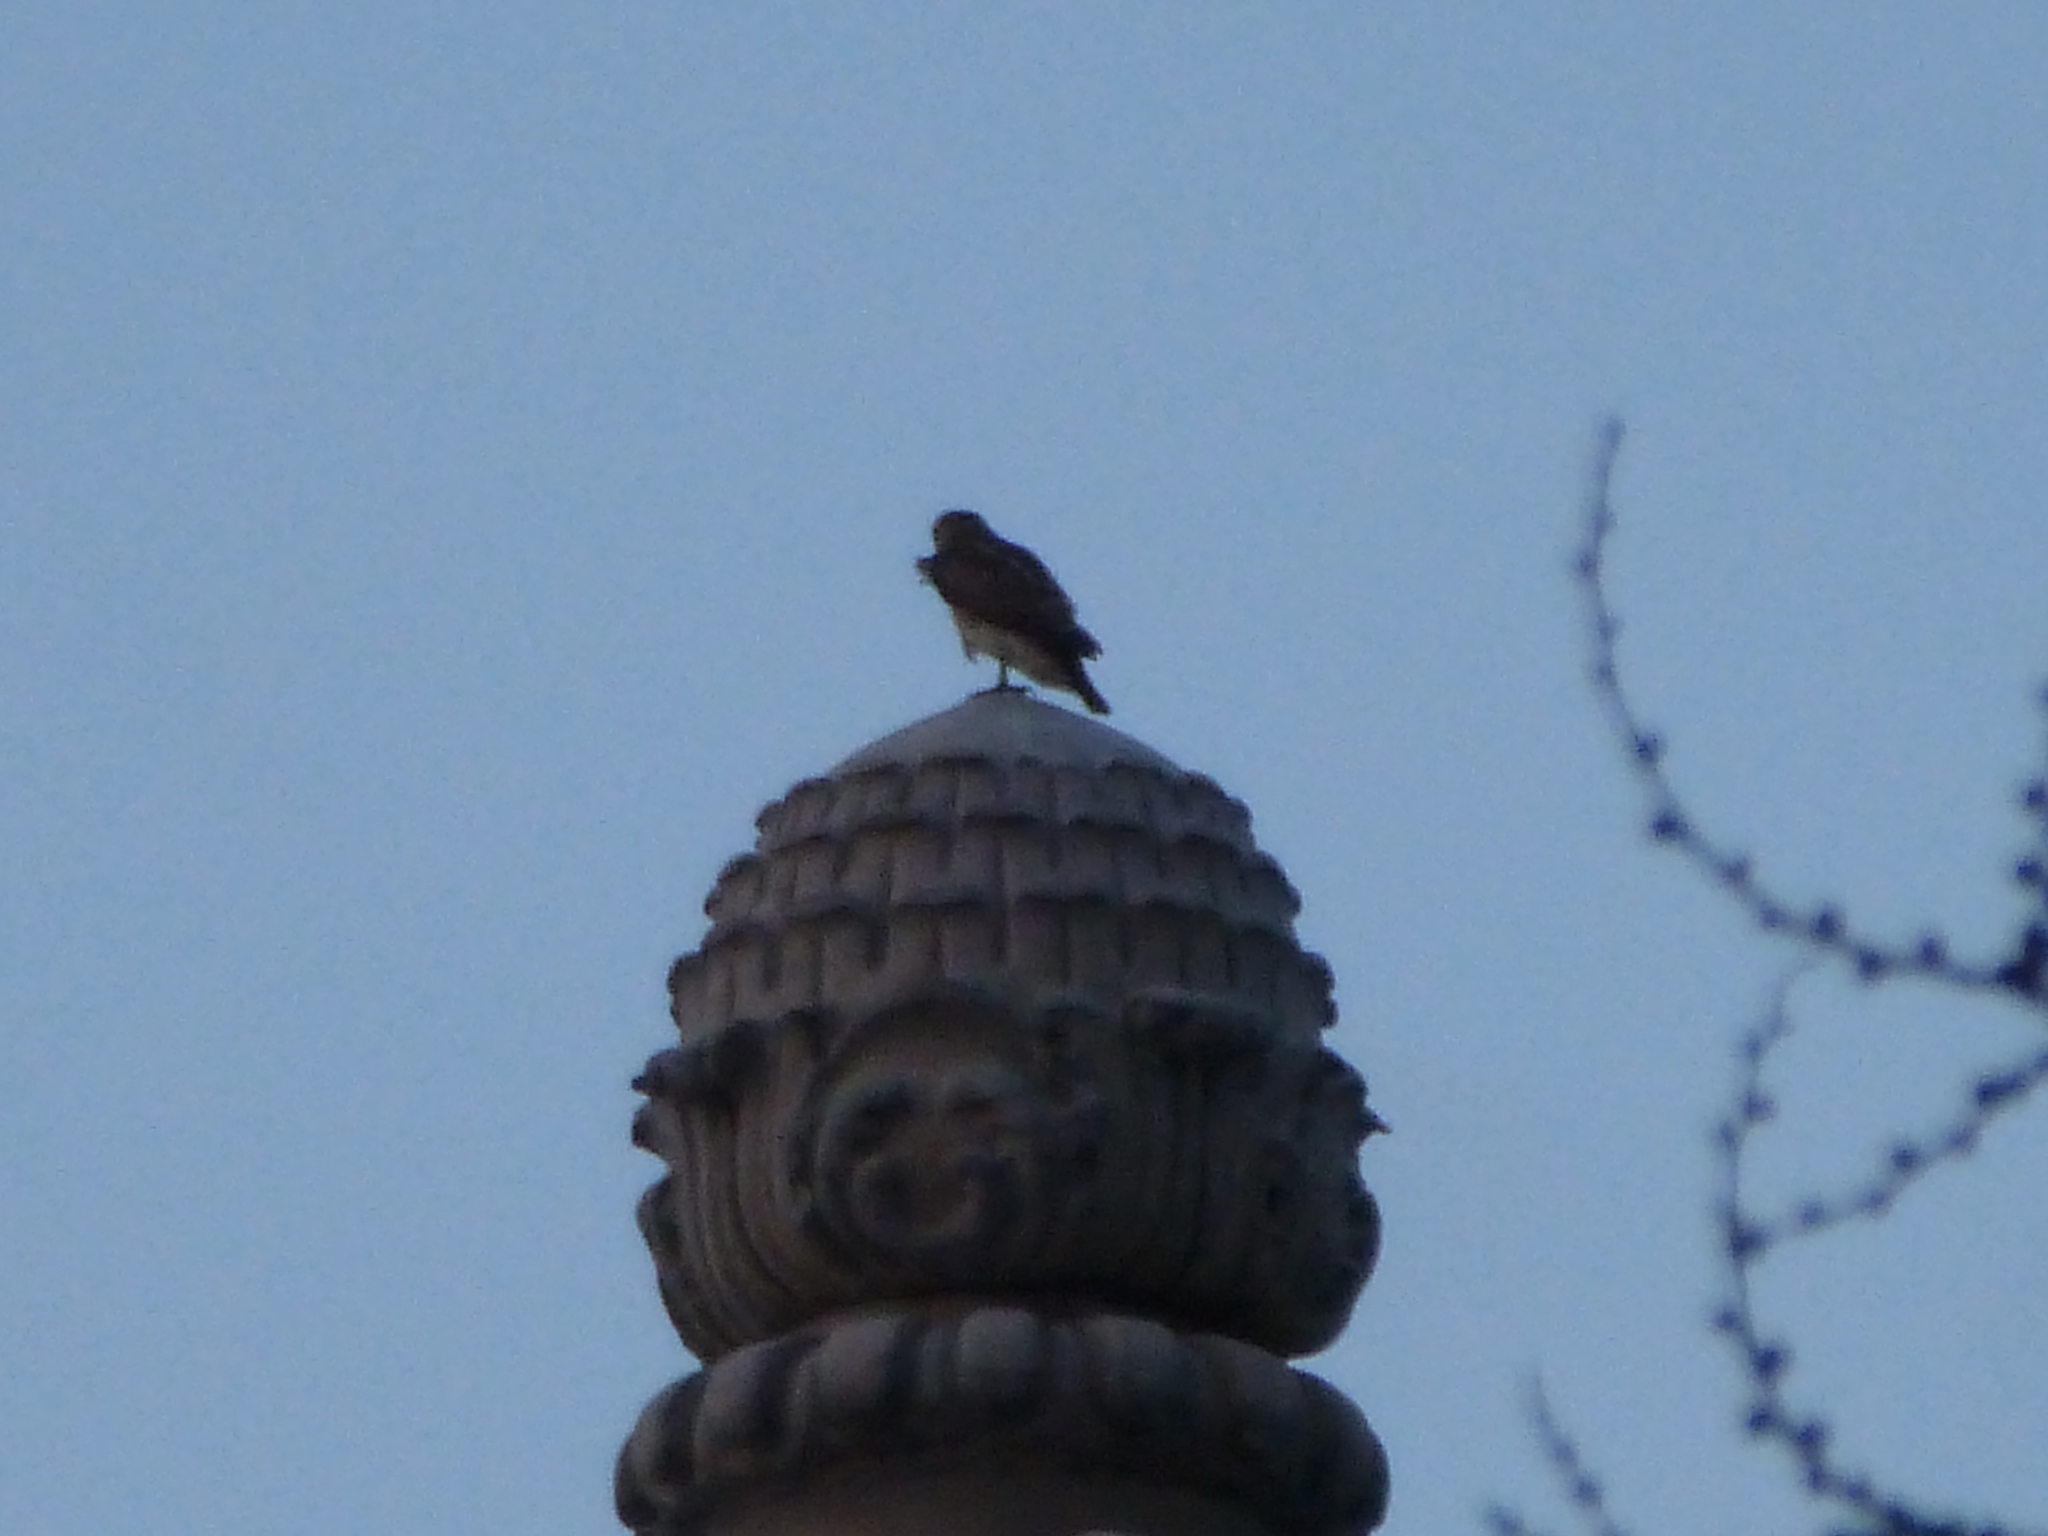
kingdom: Animalia
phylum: Chordata
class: Aves
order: Accipitriformes
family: Accipitridae
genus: Buteo
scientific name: Buteo jamaicensis
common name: Red-tailed hawk
